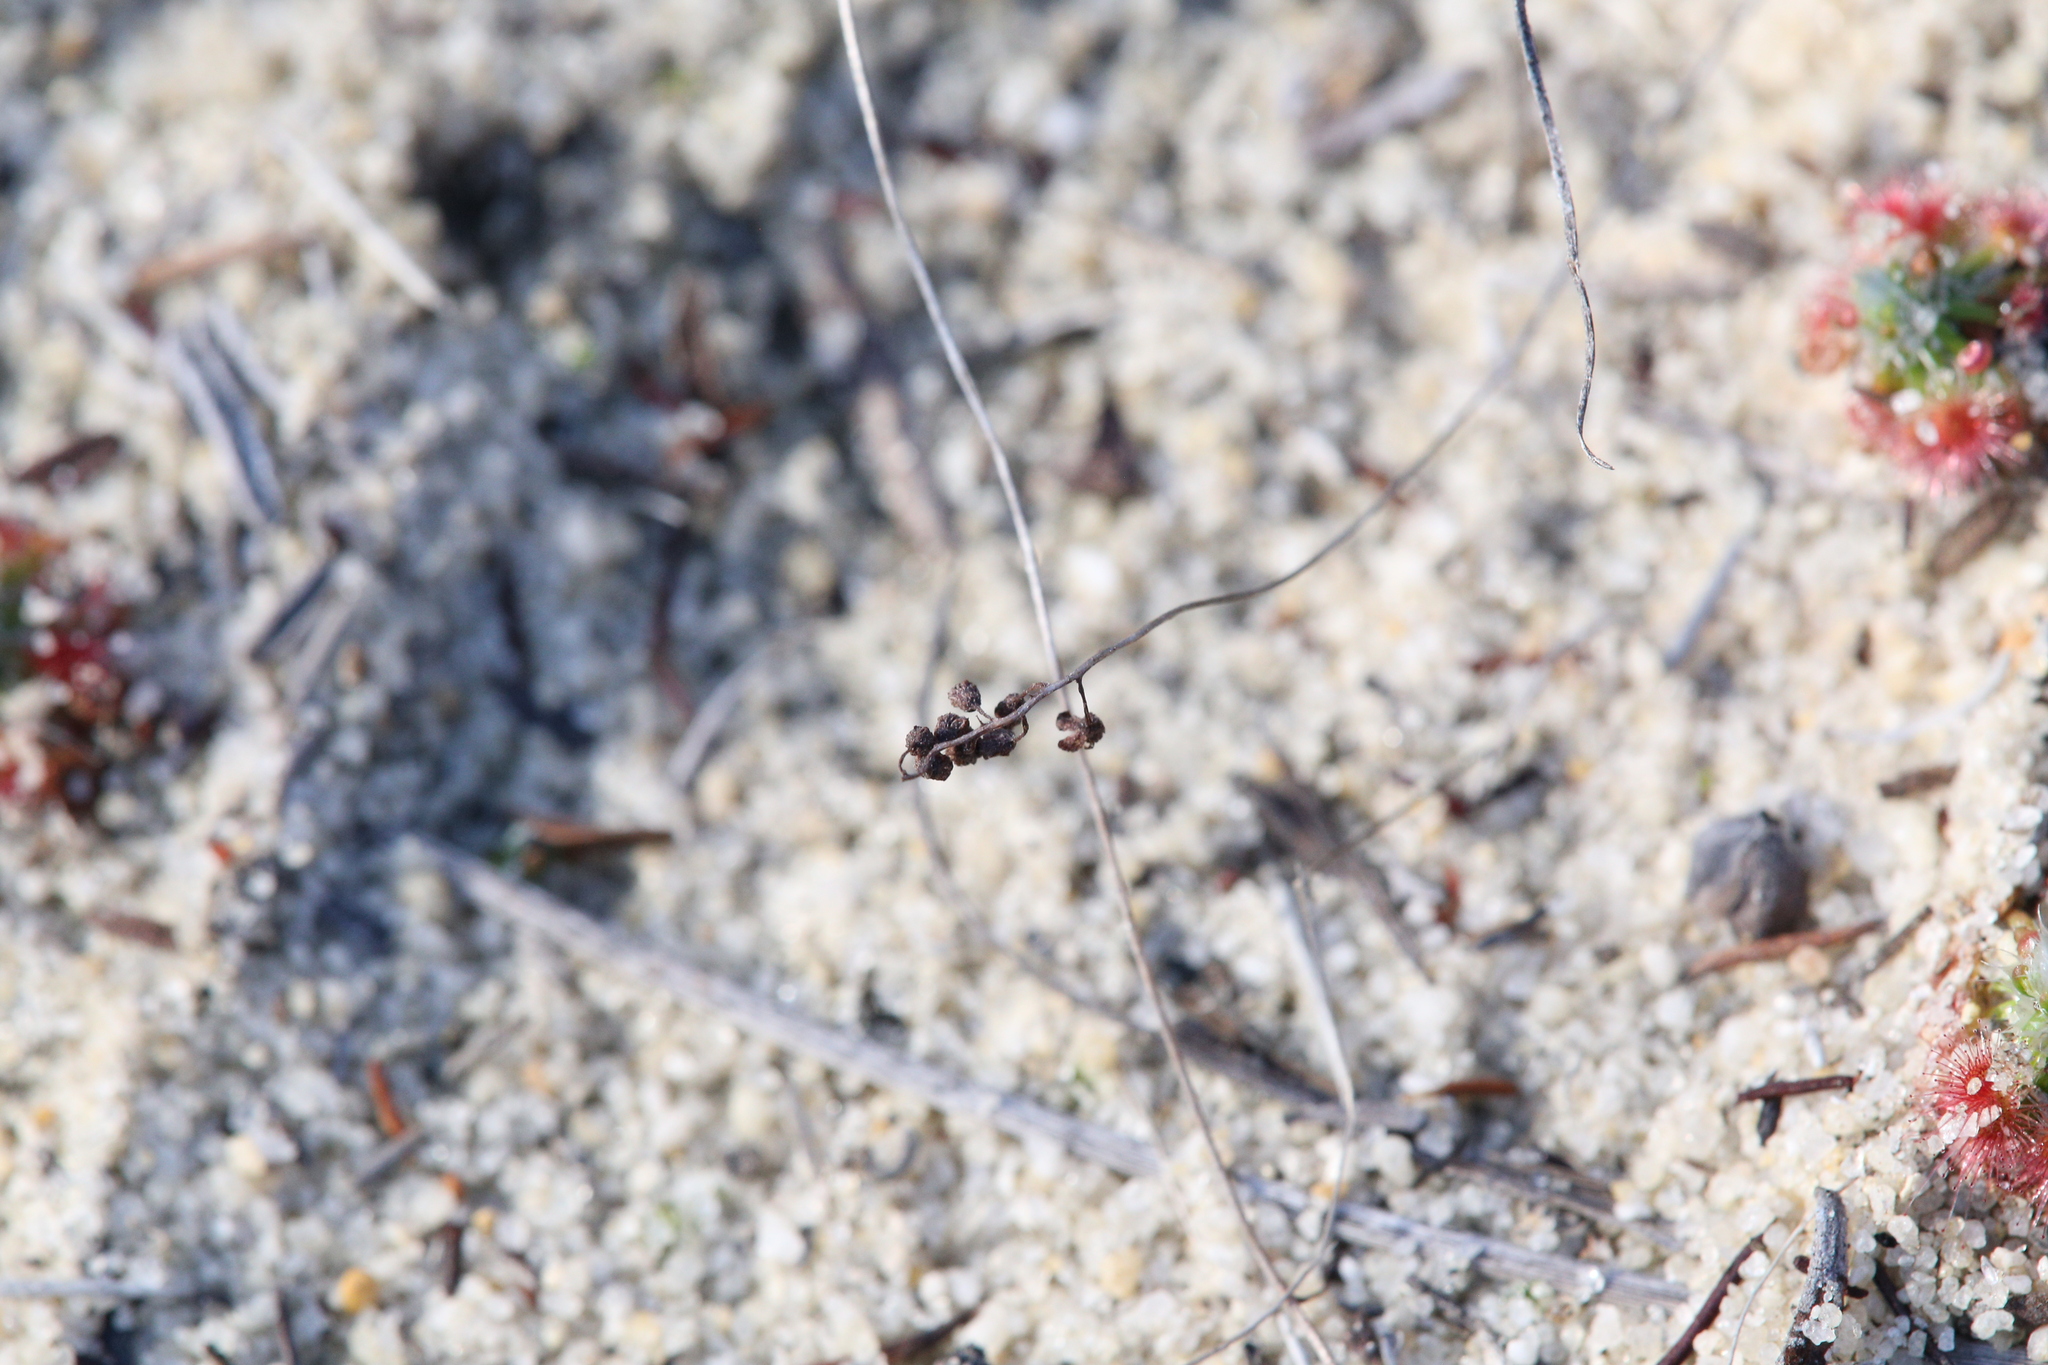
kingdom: Plantae
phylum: Tracheophyta
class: Magnoliopsida
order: Caryophyllales
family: Droseraceae
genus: Drosera
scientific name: Drosera eneabba
